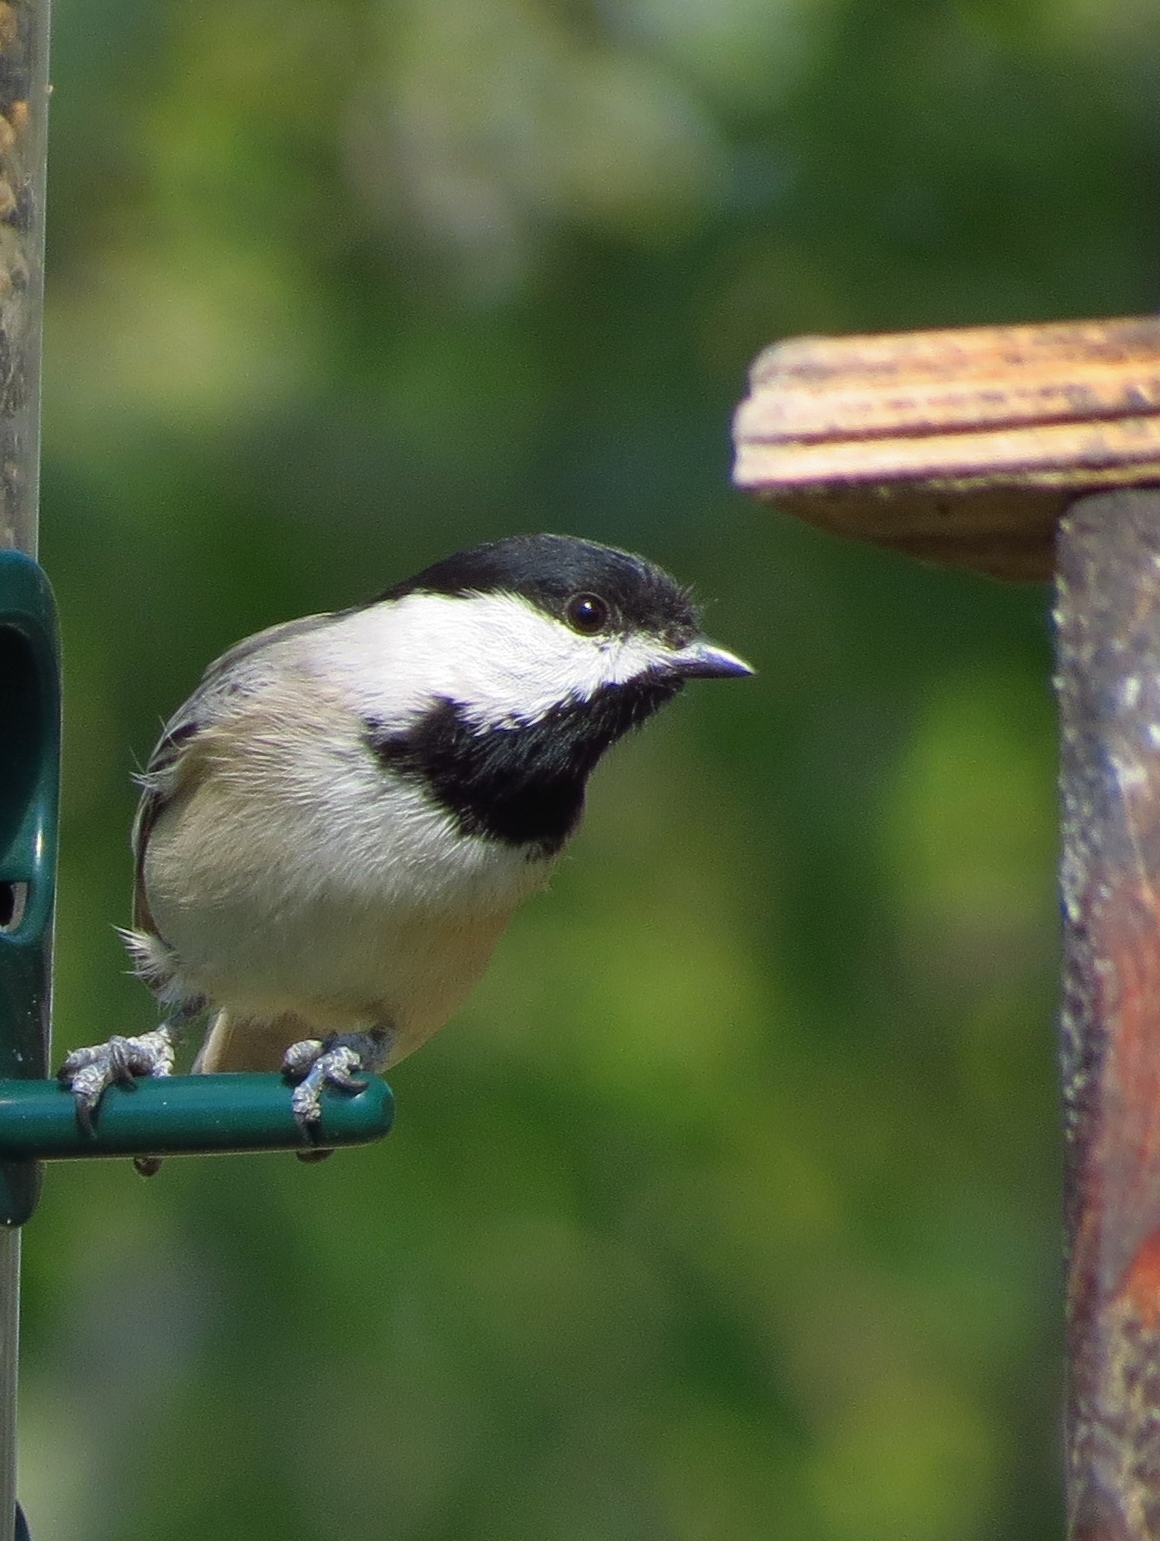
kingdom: Animalia
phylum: Chordata
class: Aves
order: Passeriformes
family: Paridae
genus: Poecile
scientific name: Poecile carolinensis
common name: Carolina chickadee
